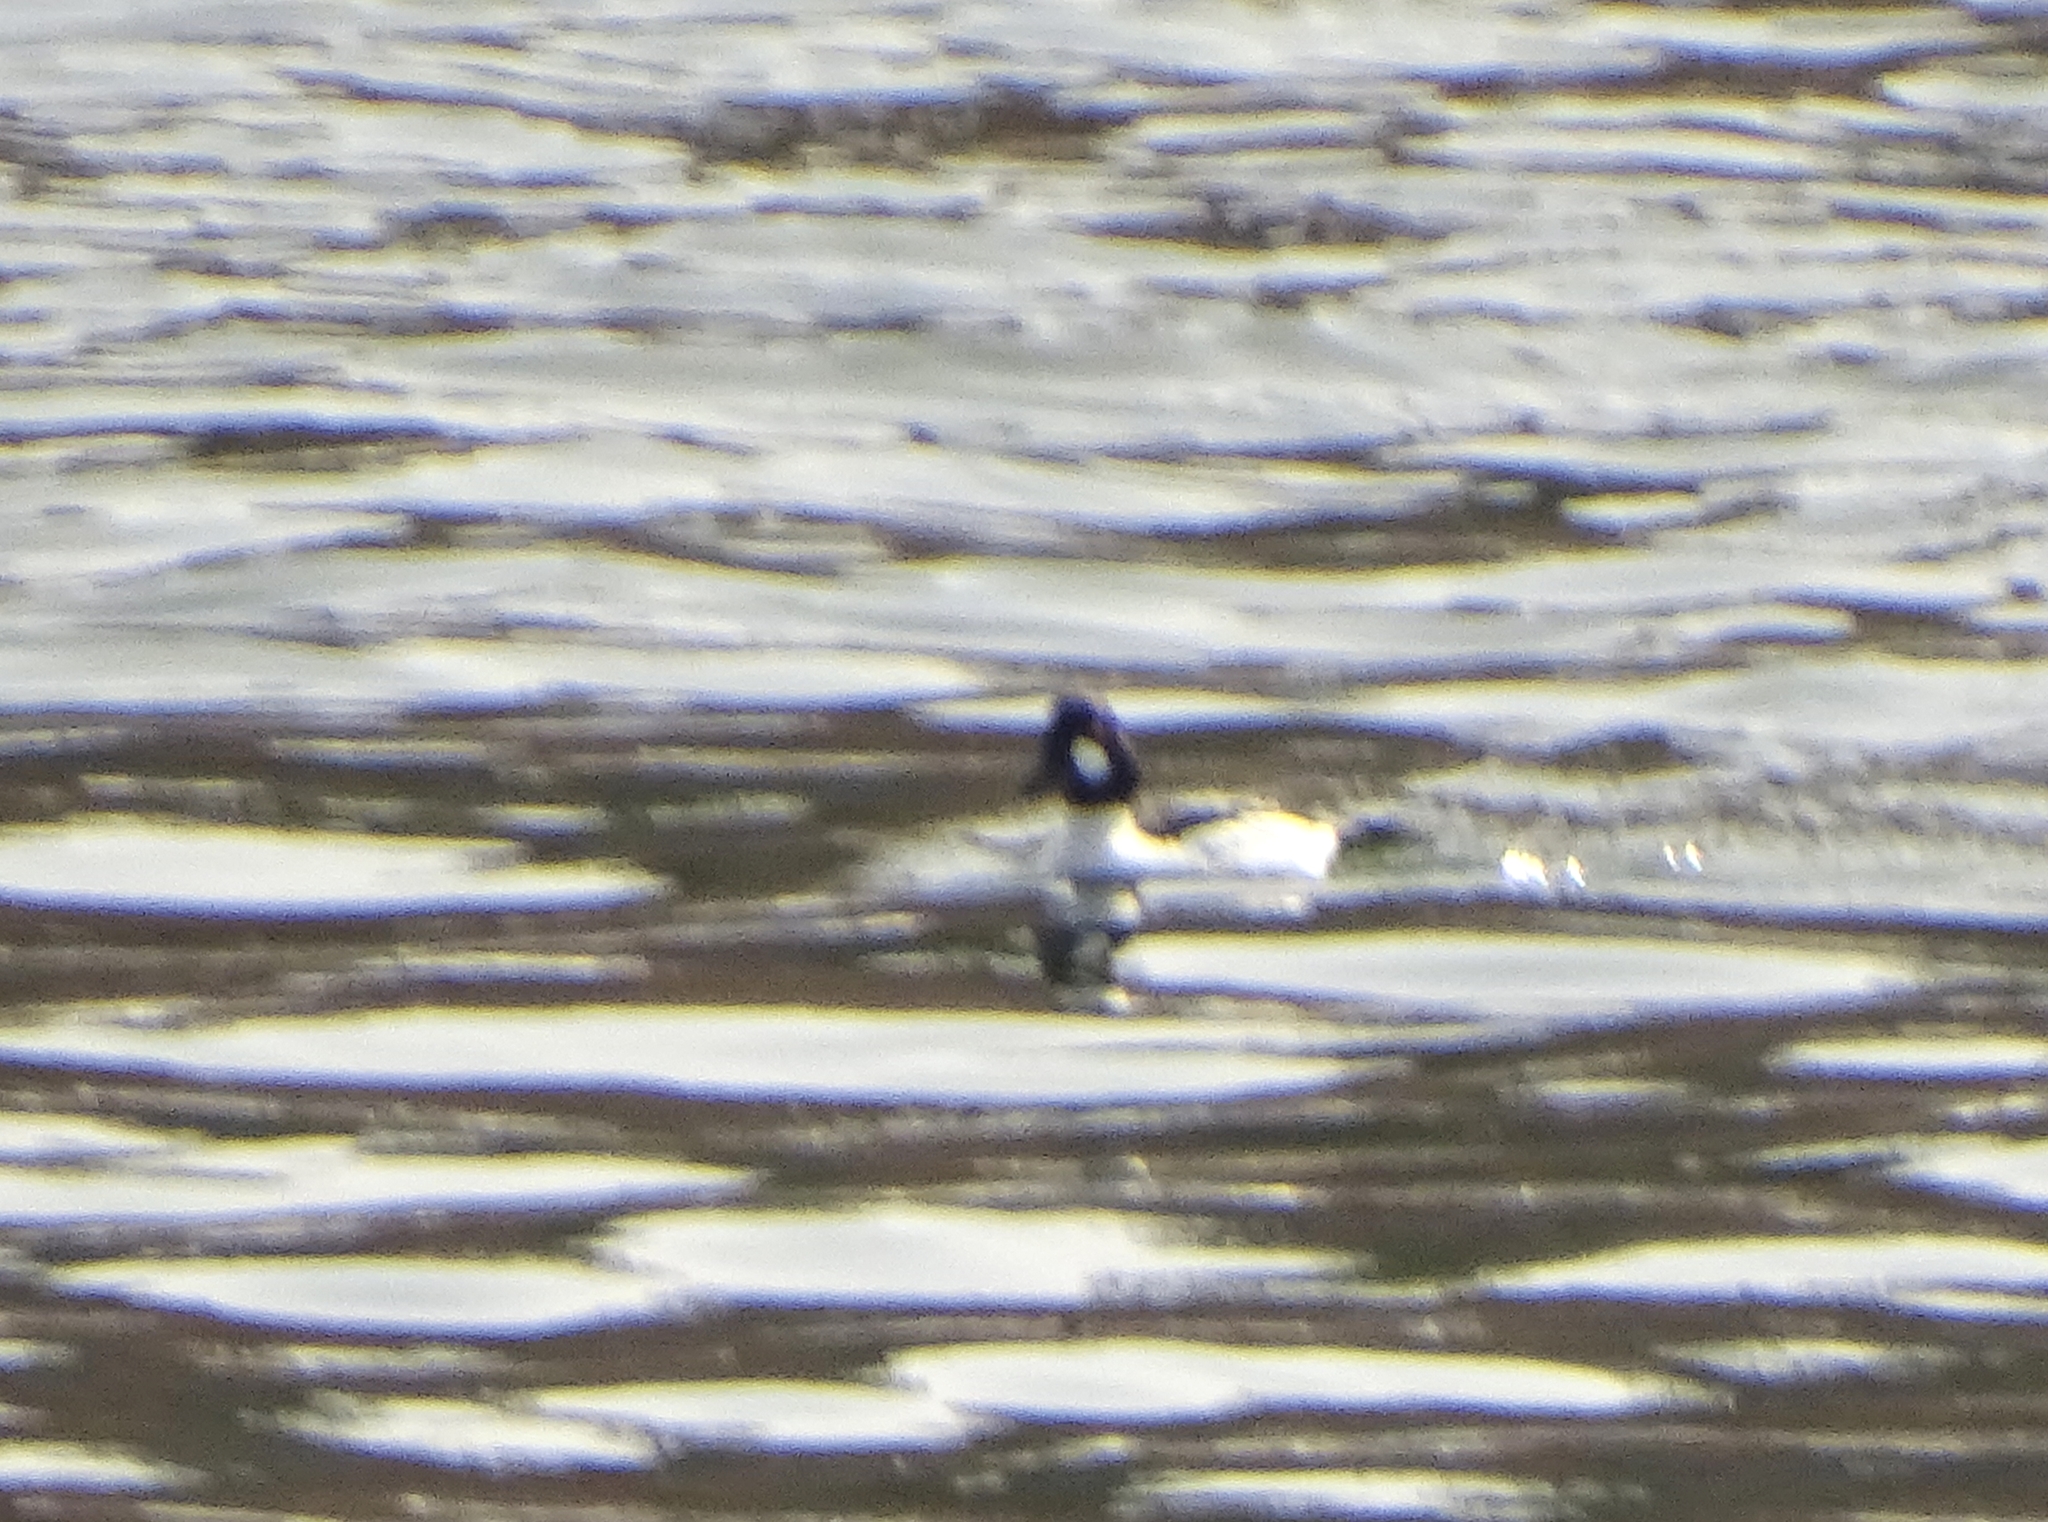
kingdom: Animalia
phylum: Chordata
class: Aves
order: Anseriformes
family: Anatidae
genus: Bucephala
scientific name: Bucephala clangula
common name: Common goldeneye
